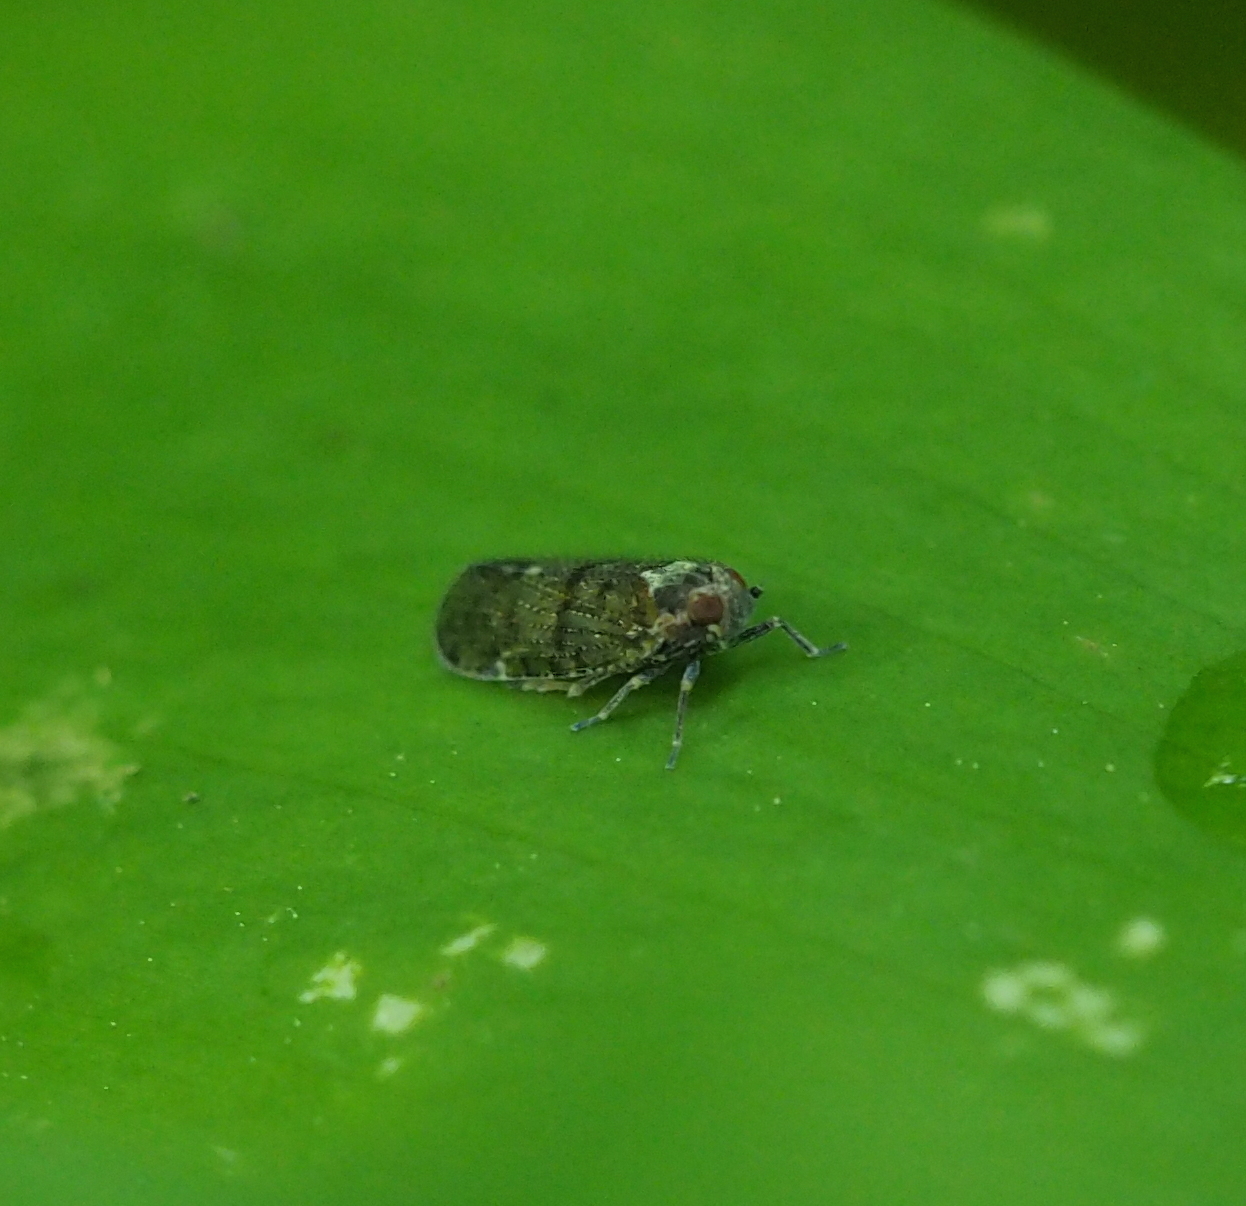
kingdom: Animalia
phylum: Arthropoda
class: Insecta
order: Hemiptera
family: Cixiidae
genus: Cixius
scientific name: Cixius
